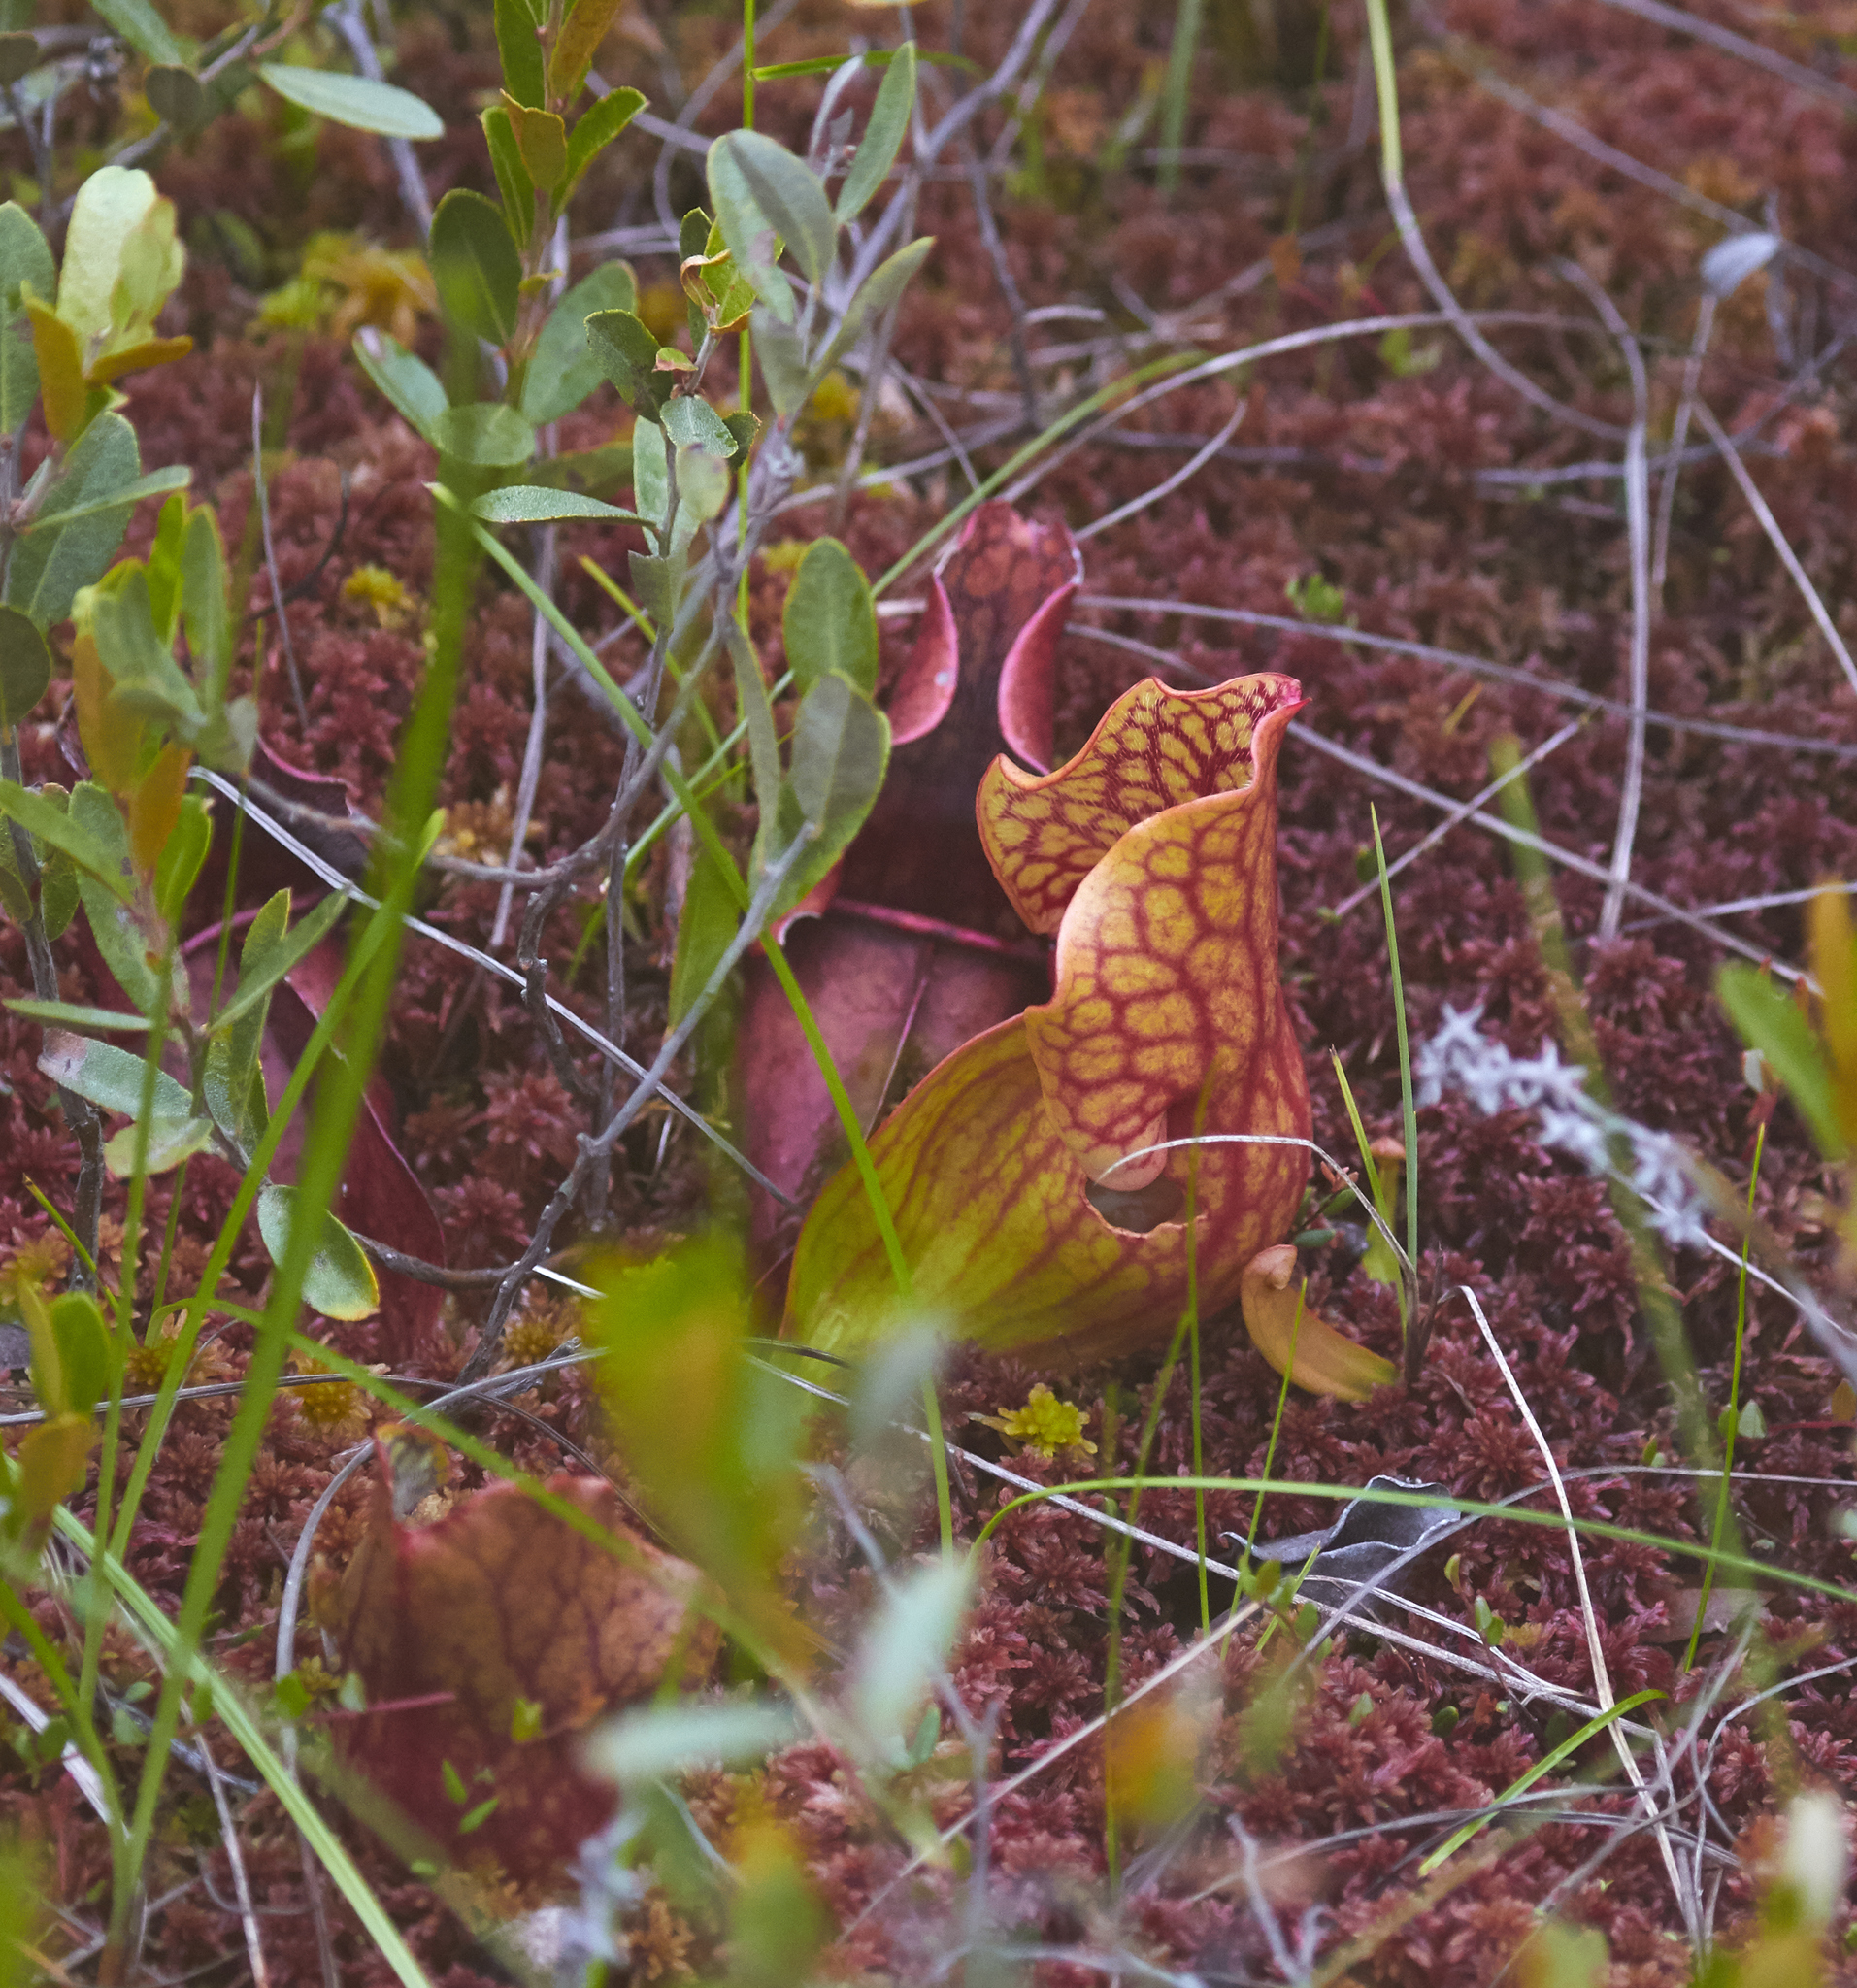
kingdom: Plantae
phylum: Tracheophyta
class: Magnoliopsida
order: Ericales
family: Sarraceniaceae
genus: Sarracenia
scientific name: Sarracenia purpurea
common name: Pitcherplant
